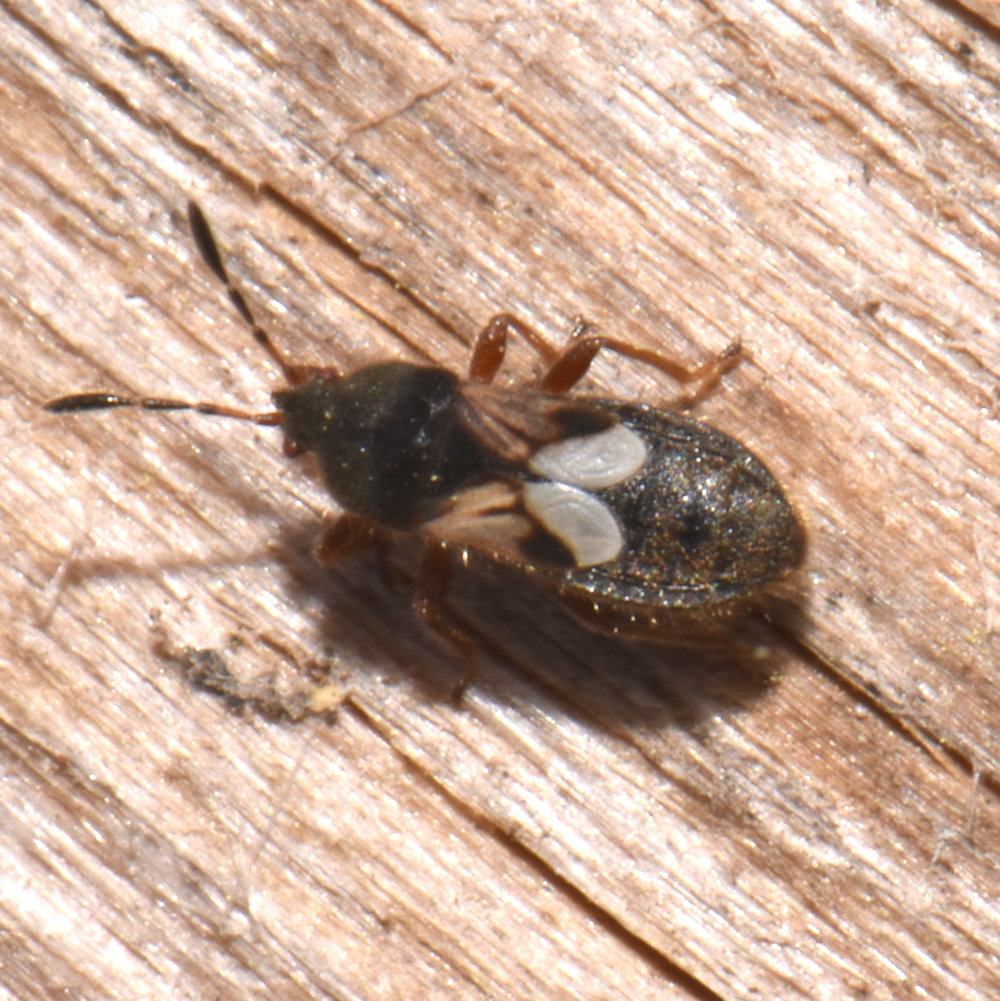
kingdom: Animalia
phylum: Arthropoda
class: Insecta
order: Hemiptera
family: Blissidae
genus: Blissus
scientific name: Blissus leucopterus
